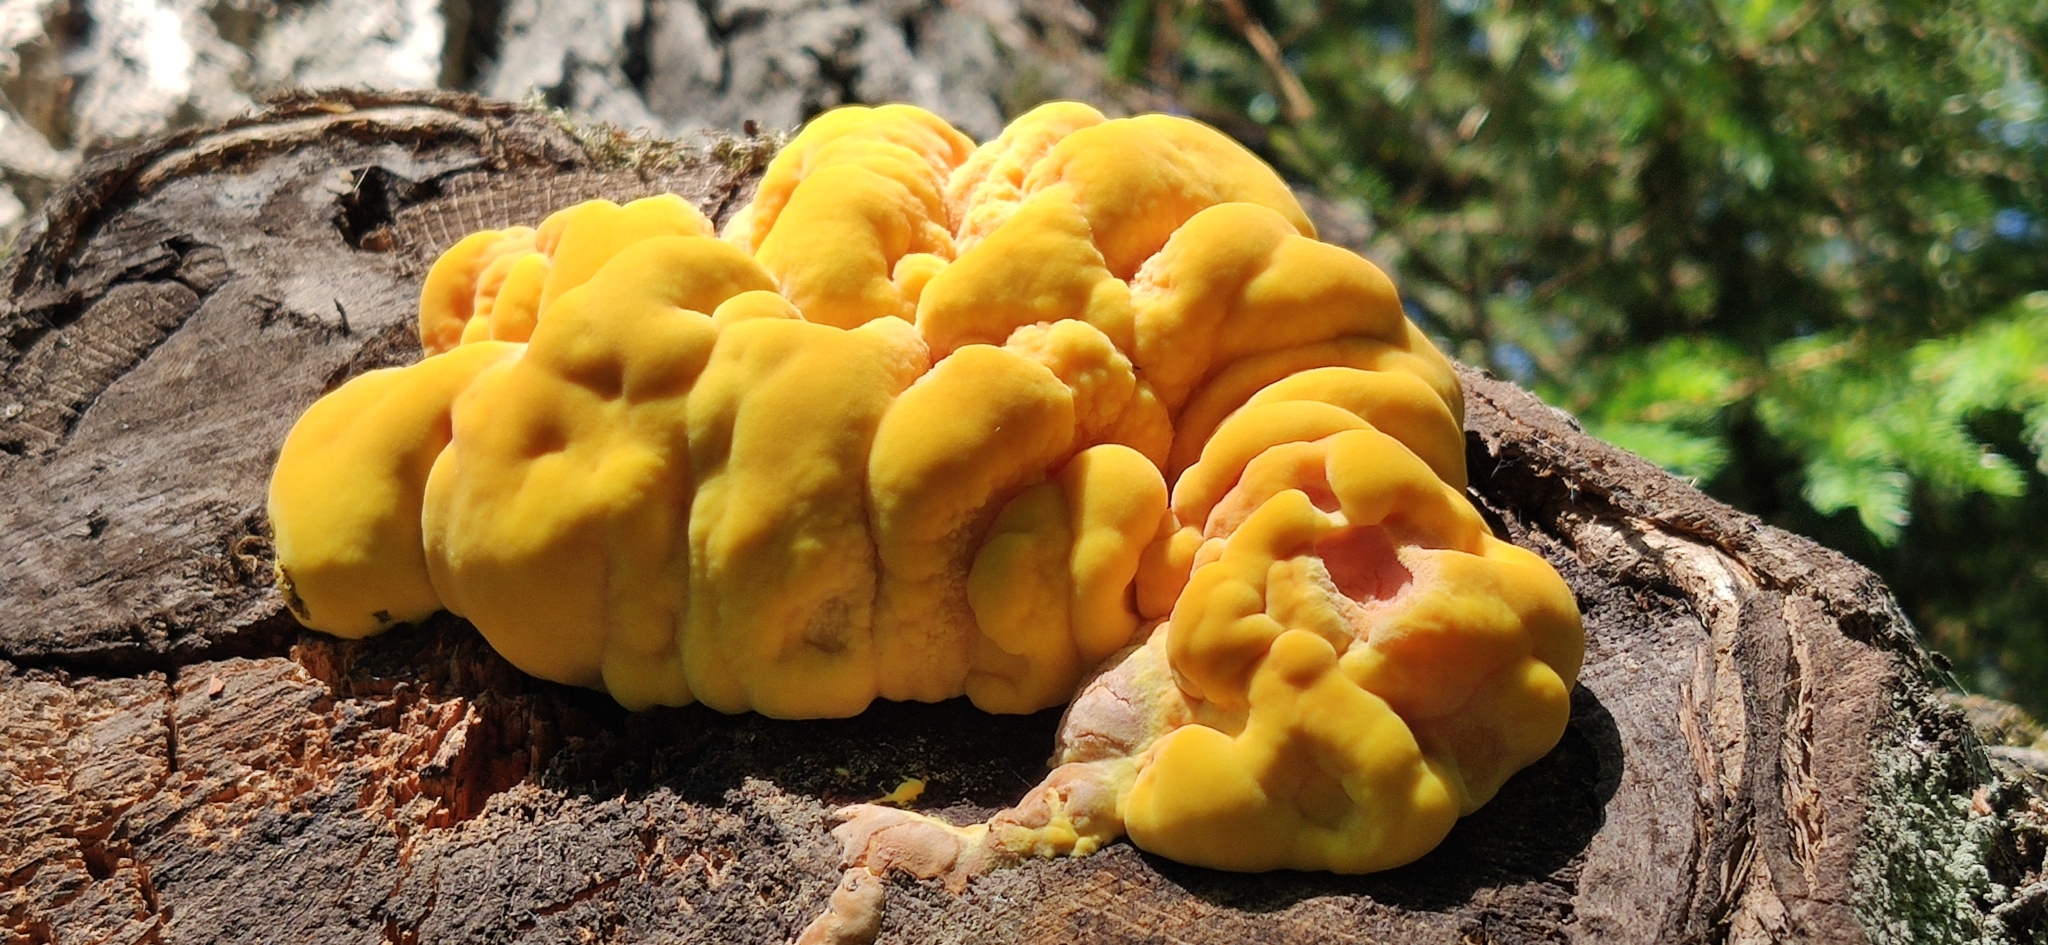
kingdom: Fungi
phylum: Basidiomycota
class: Agaricomycetes
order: Polyporales
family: Laetiporaceae
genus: Laetiporus
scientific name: Laetiporus sulphureus
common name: Chicken of the woods
